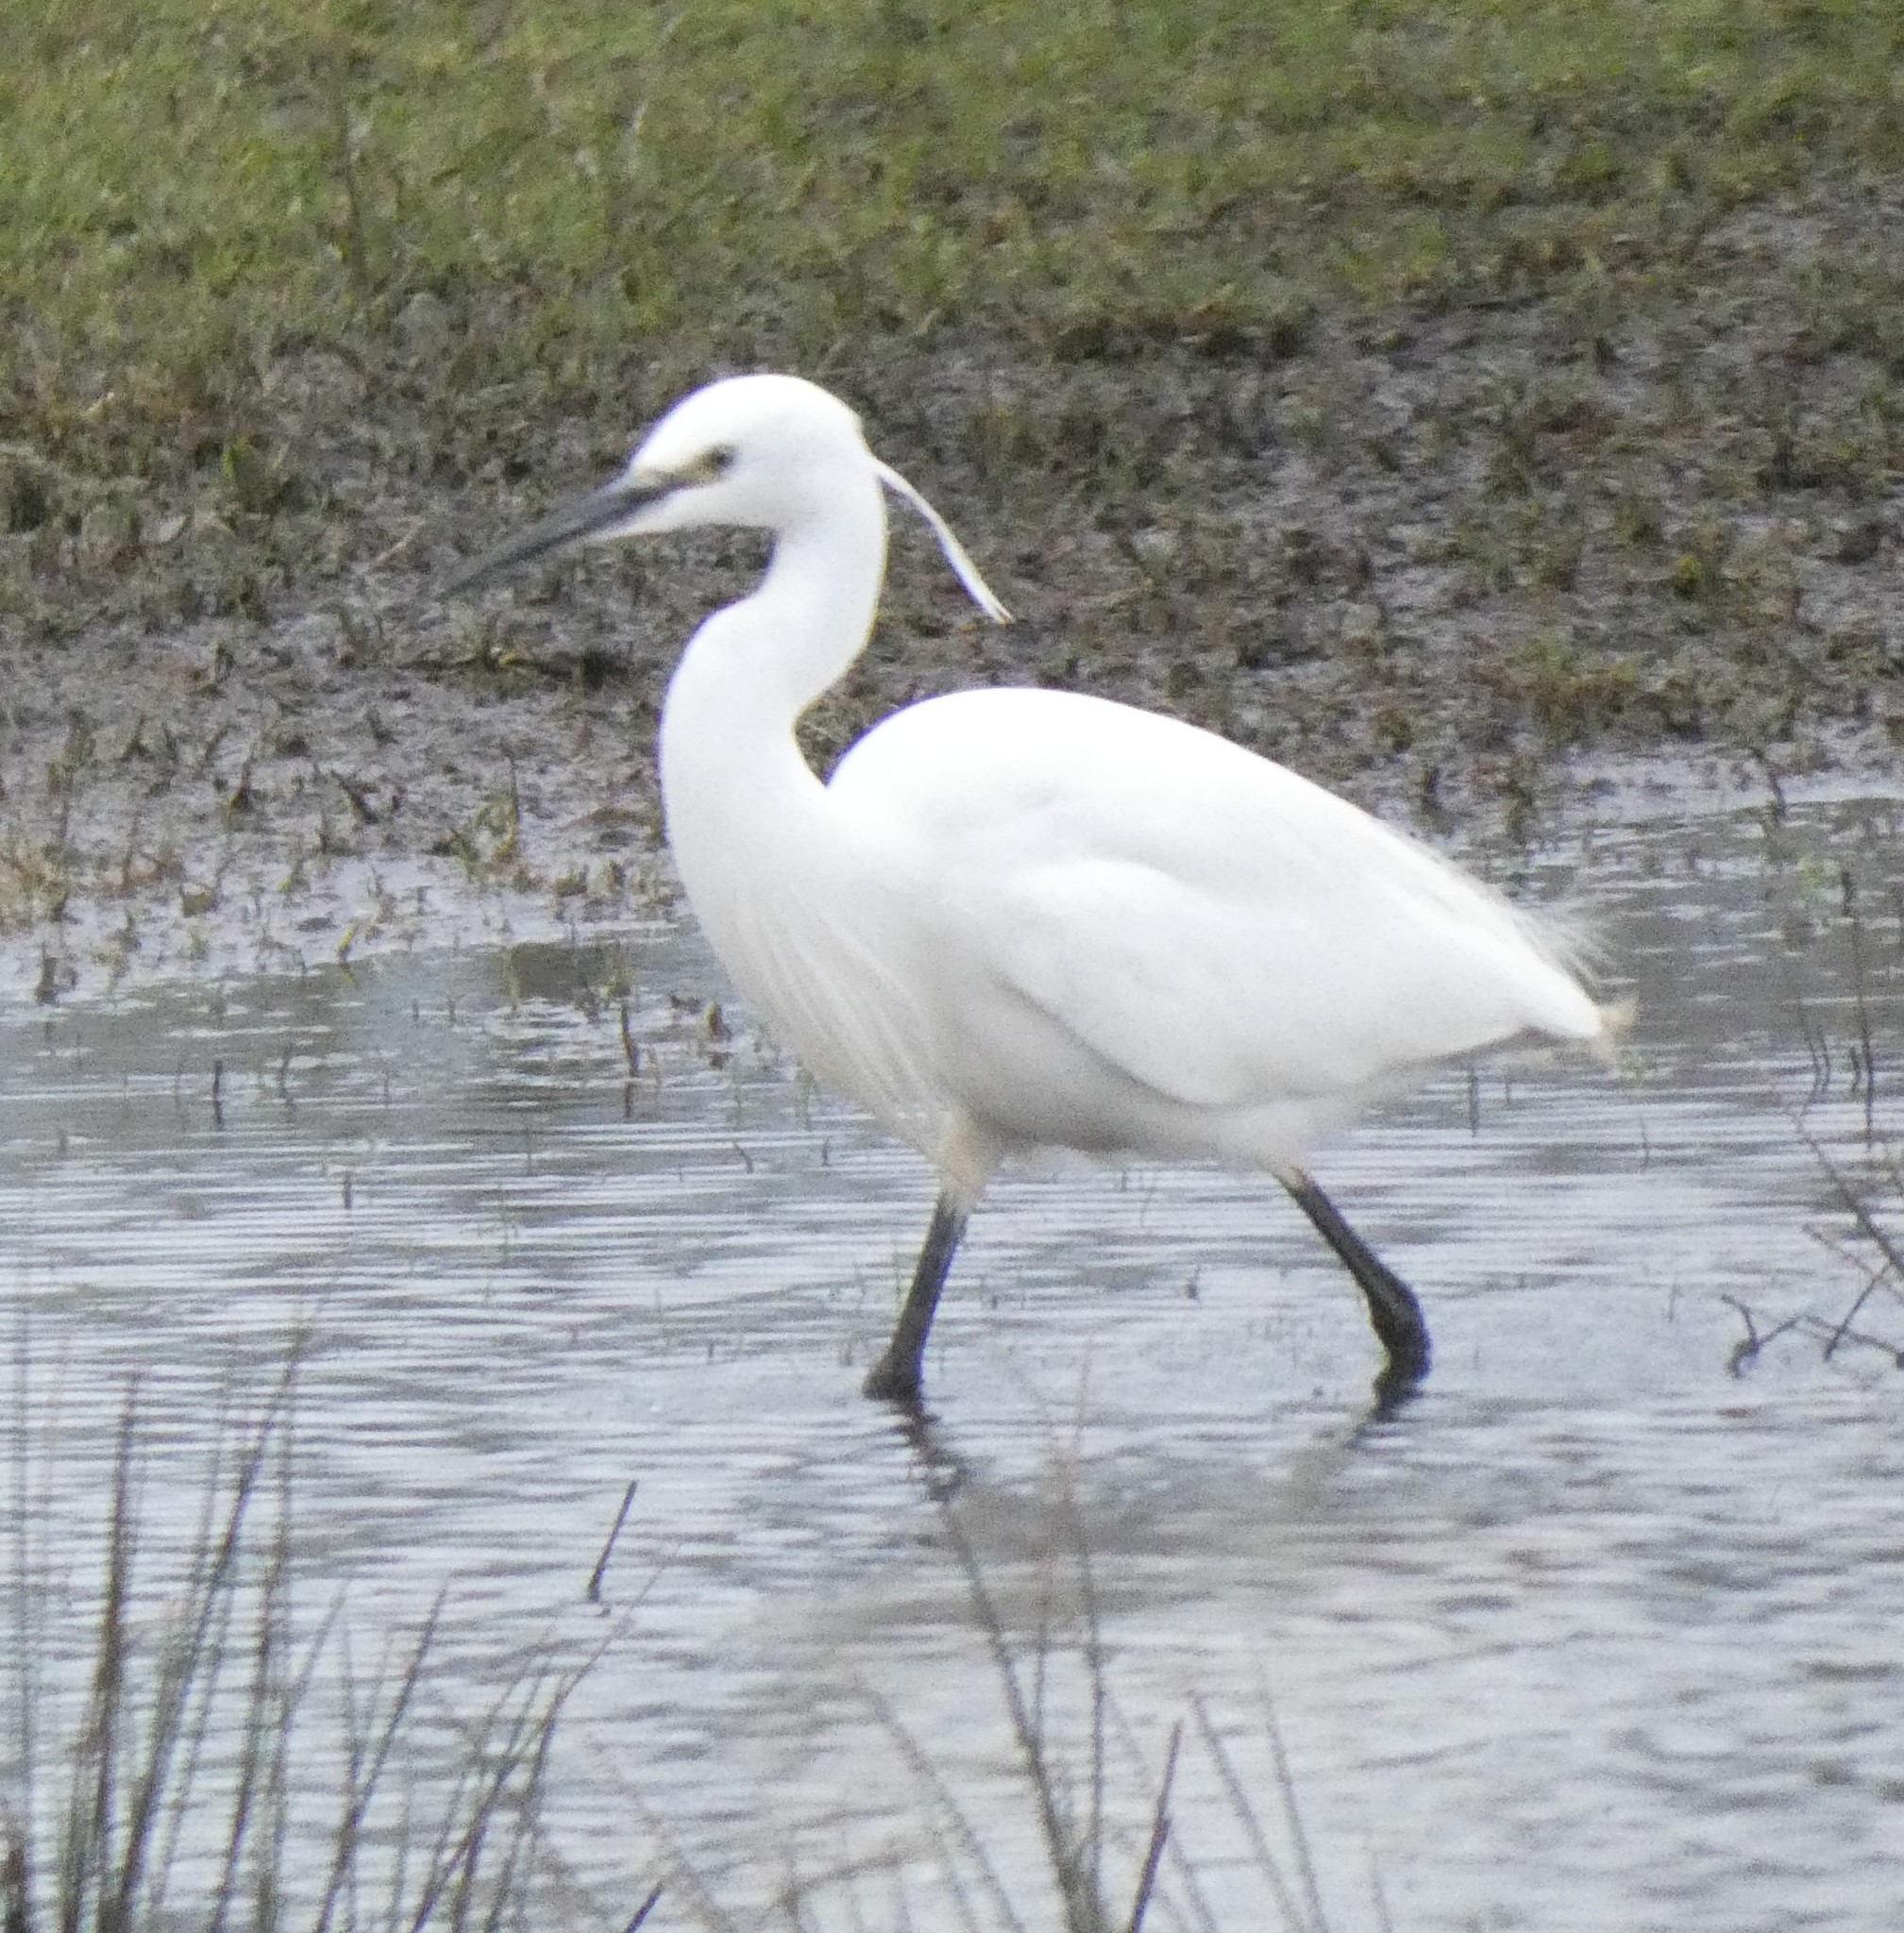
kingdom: Animalia
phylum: Chordata
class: Aves
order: Pelecaniformes
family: Ardeidae
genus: Egretta
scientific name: Egretta garzetta
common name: Little egret
